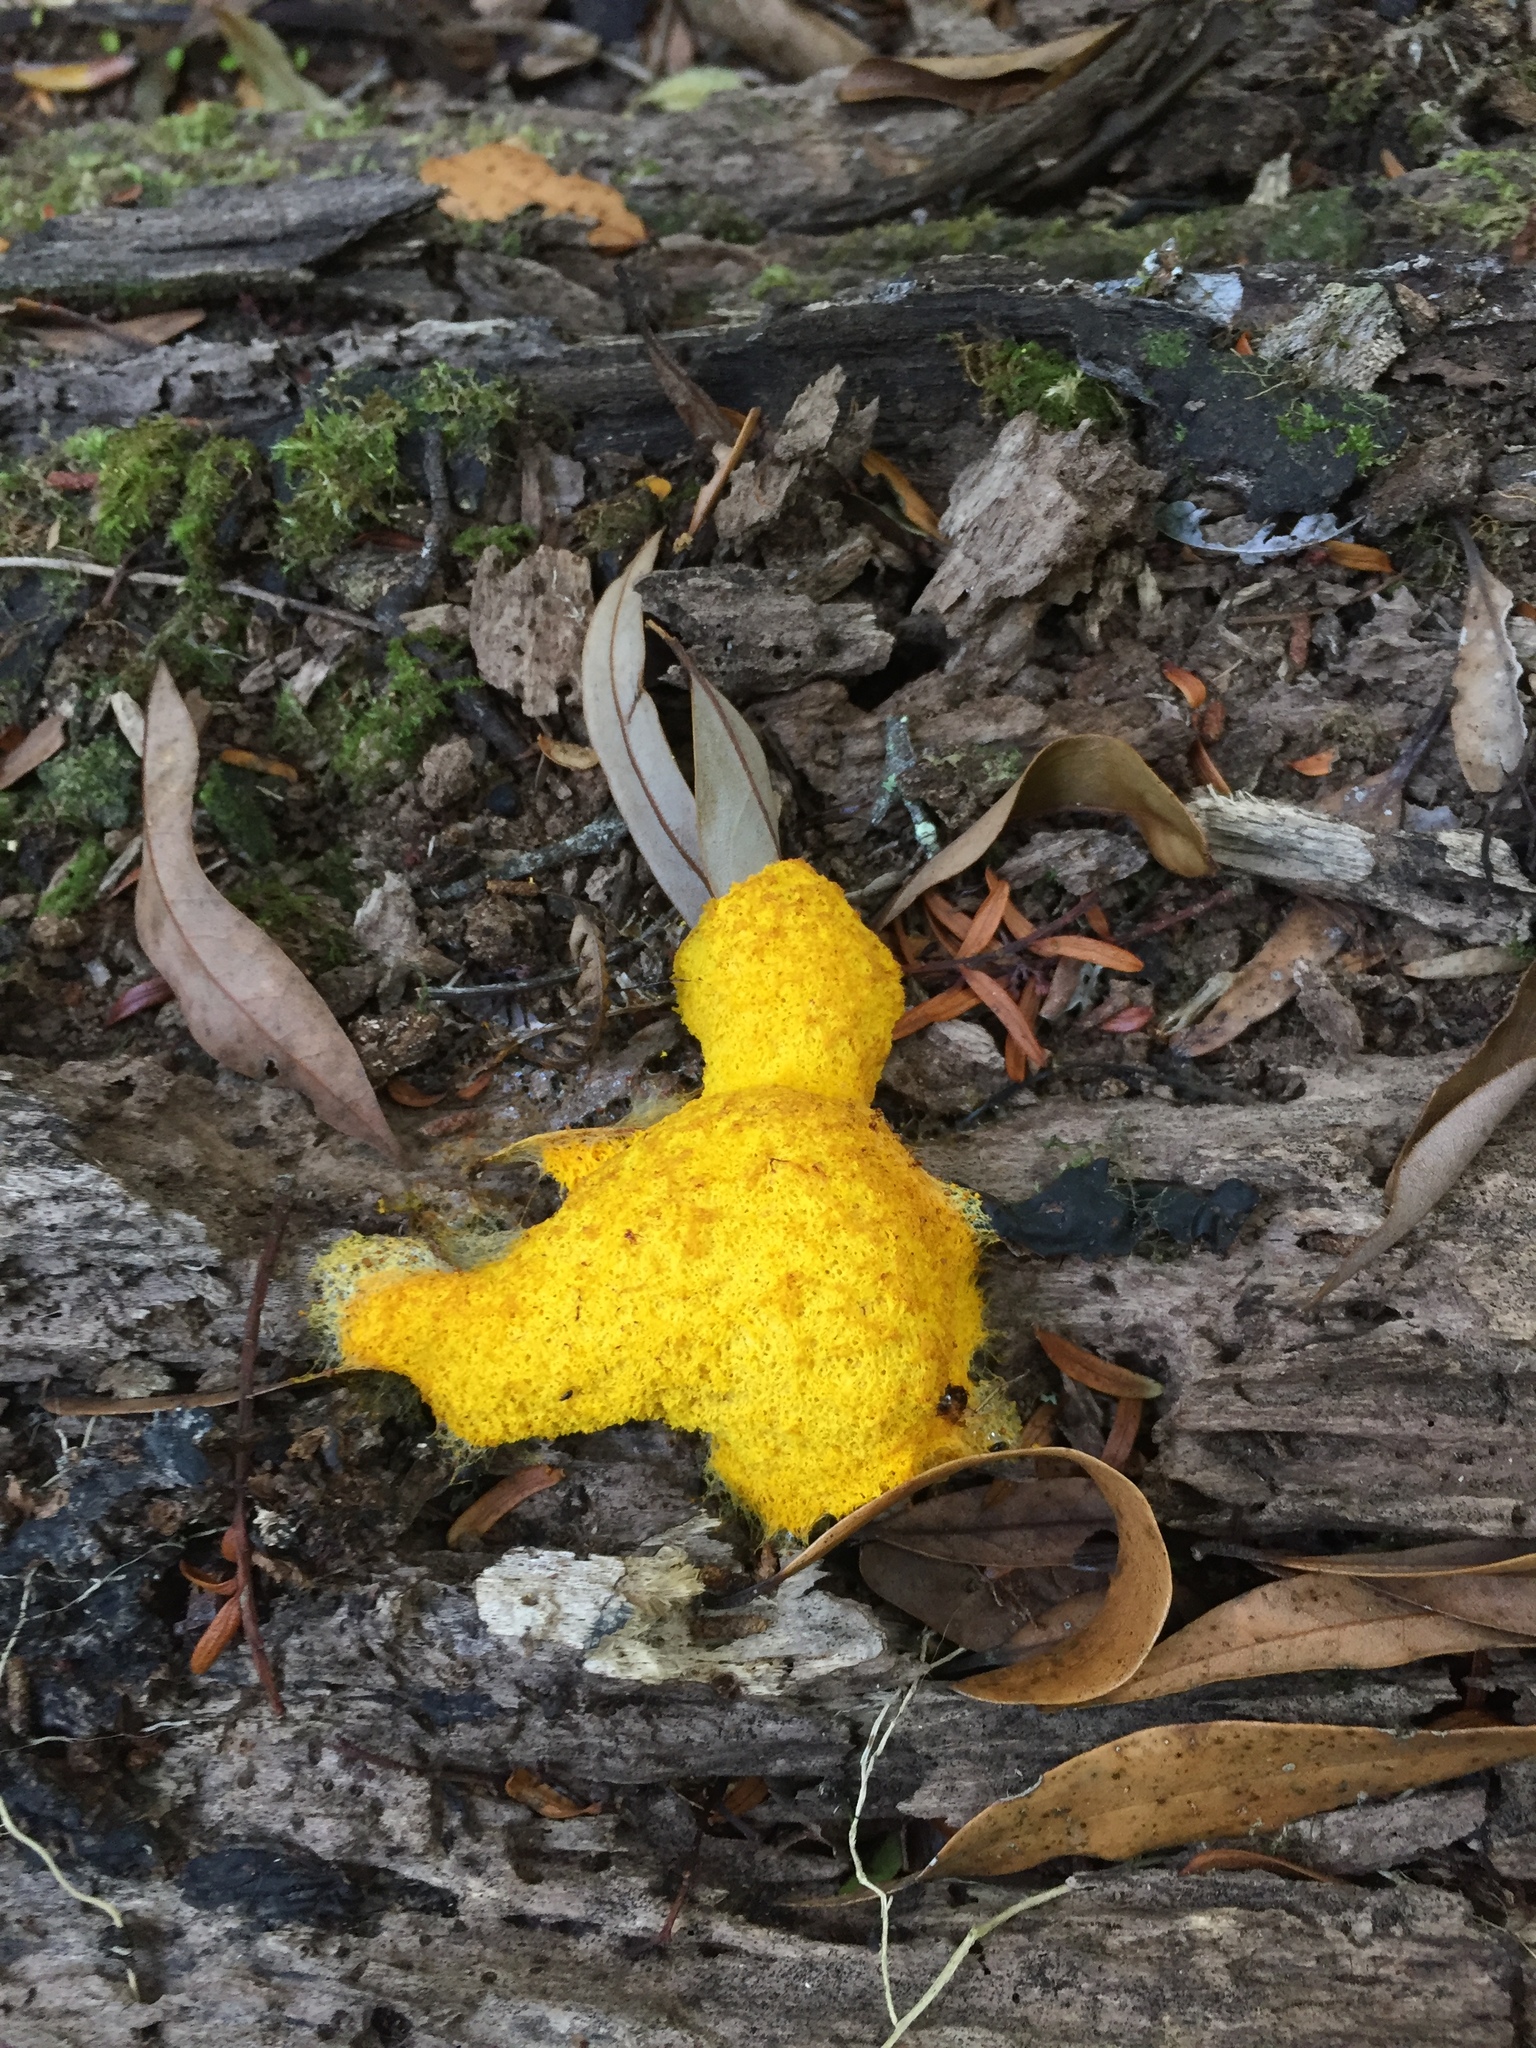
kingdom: Protozoa
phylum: Mycetozoa
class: Myxomycetes
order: Physarales
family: Physaraceae
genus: Fuligo
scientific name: Fuligo septica
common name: Dog vomit slime mold
